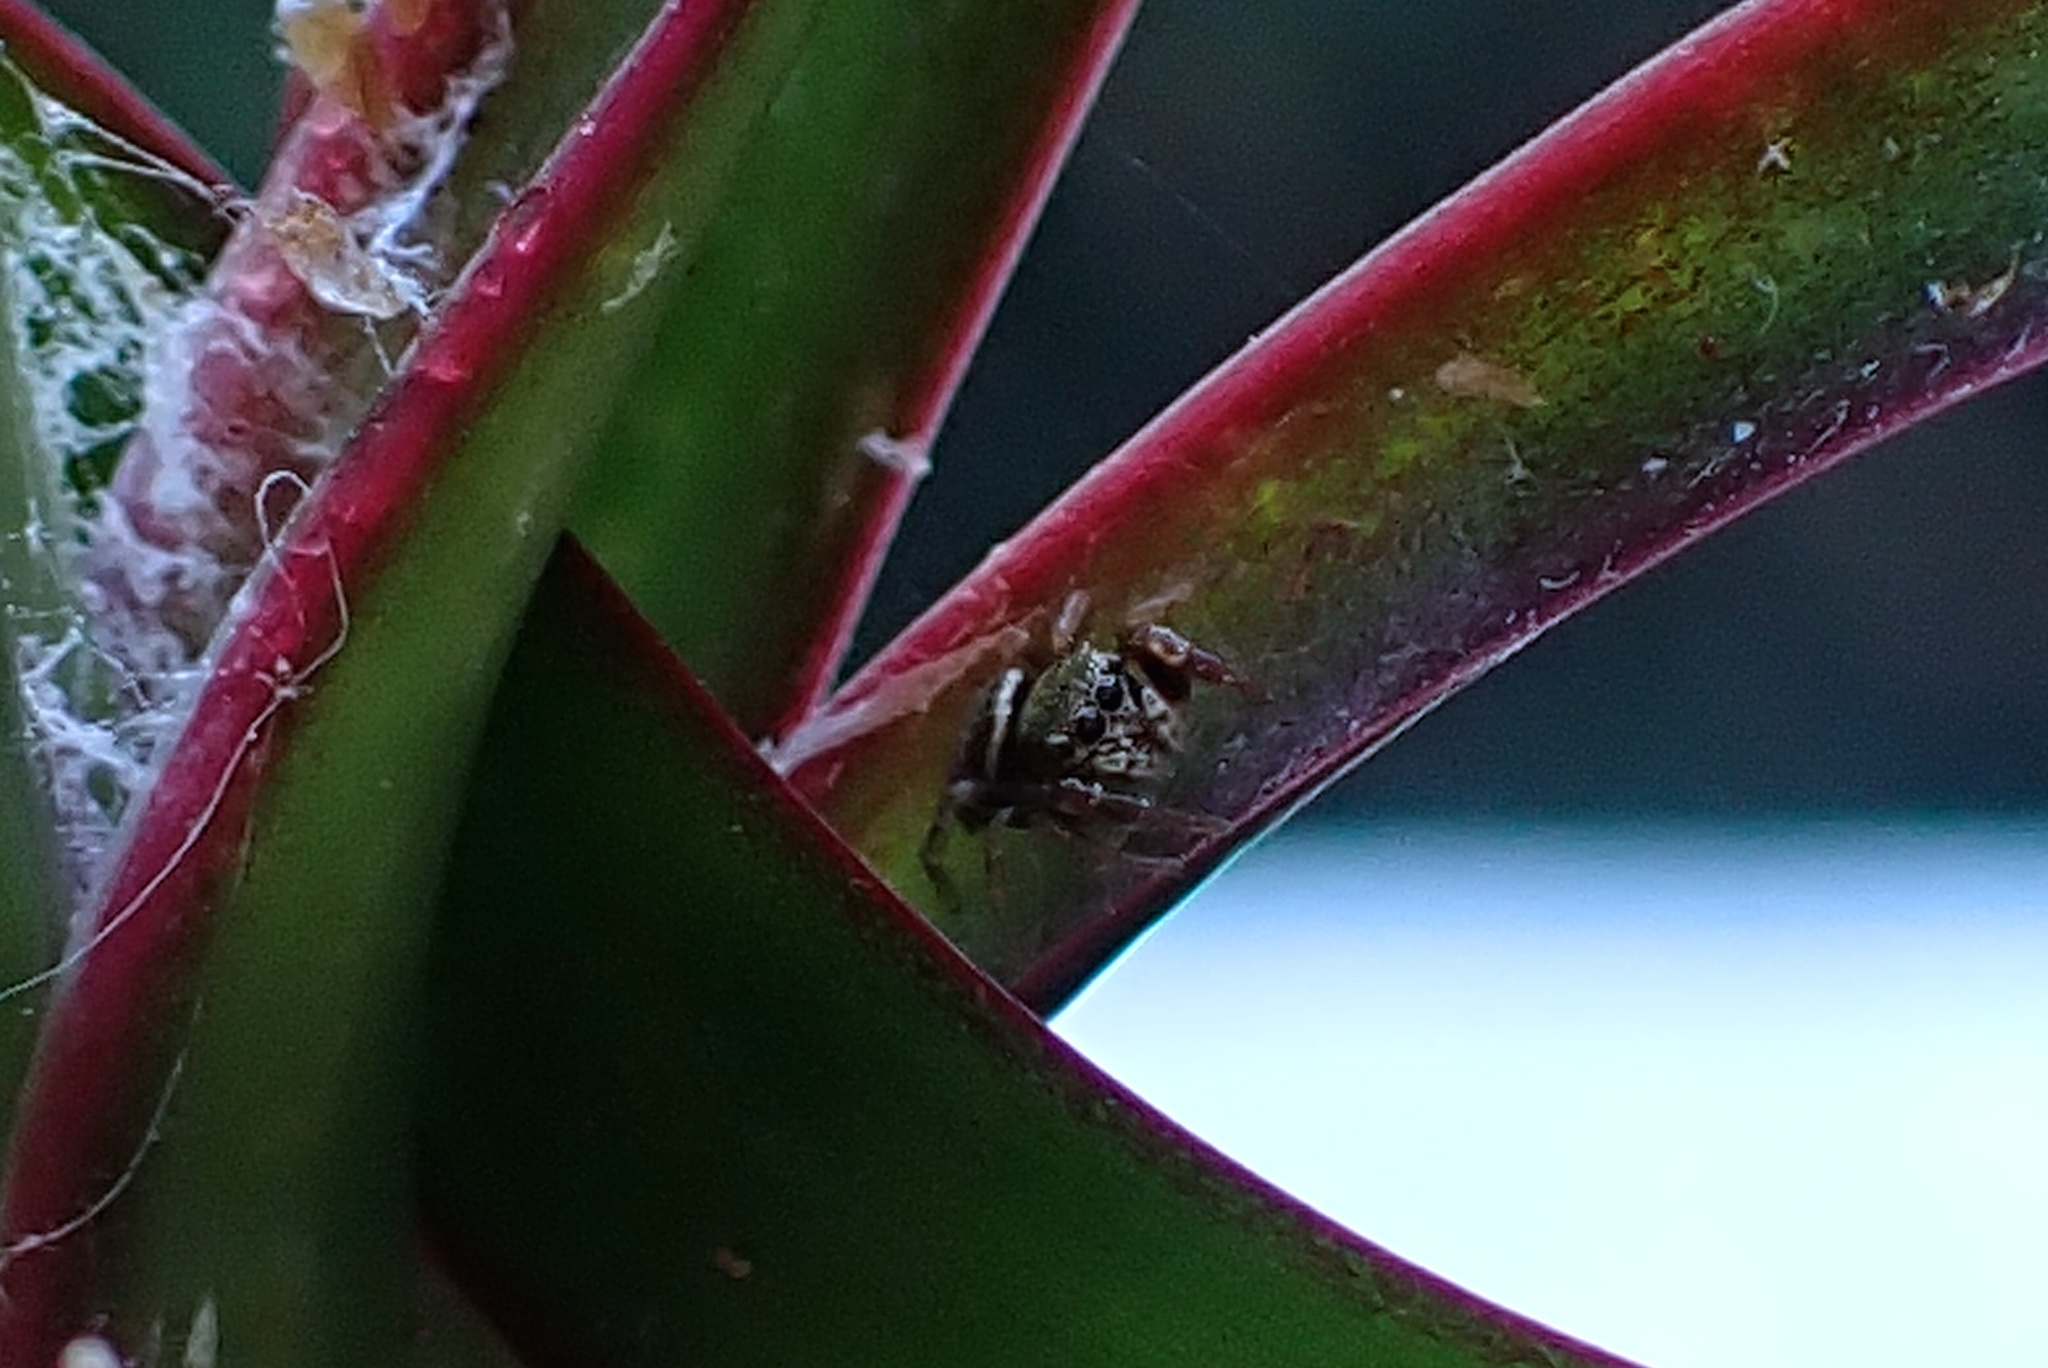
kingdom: Animalia
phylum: Arthropoda
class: Arachnida
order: Araneae
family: Salticidae
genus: Sassacus
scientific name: Sassacus vitis
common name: Jumping spiders
